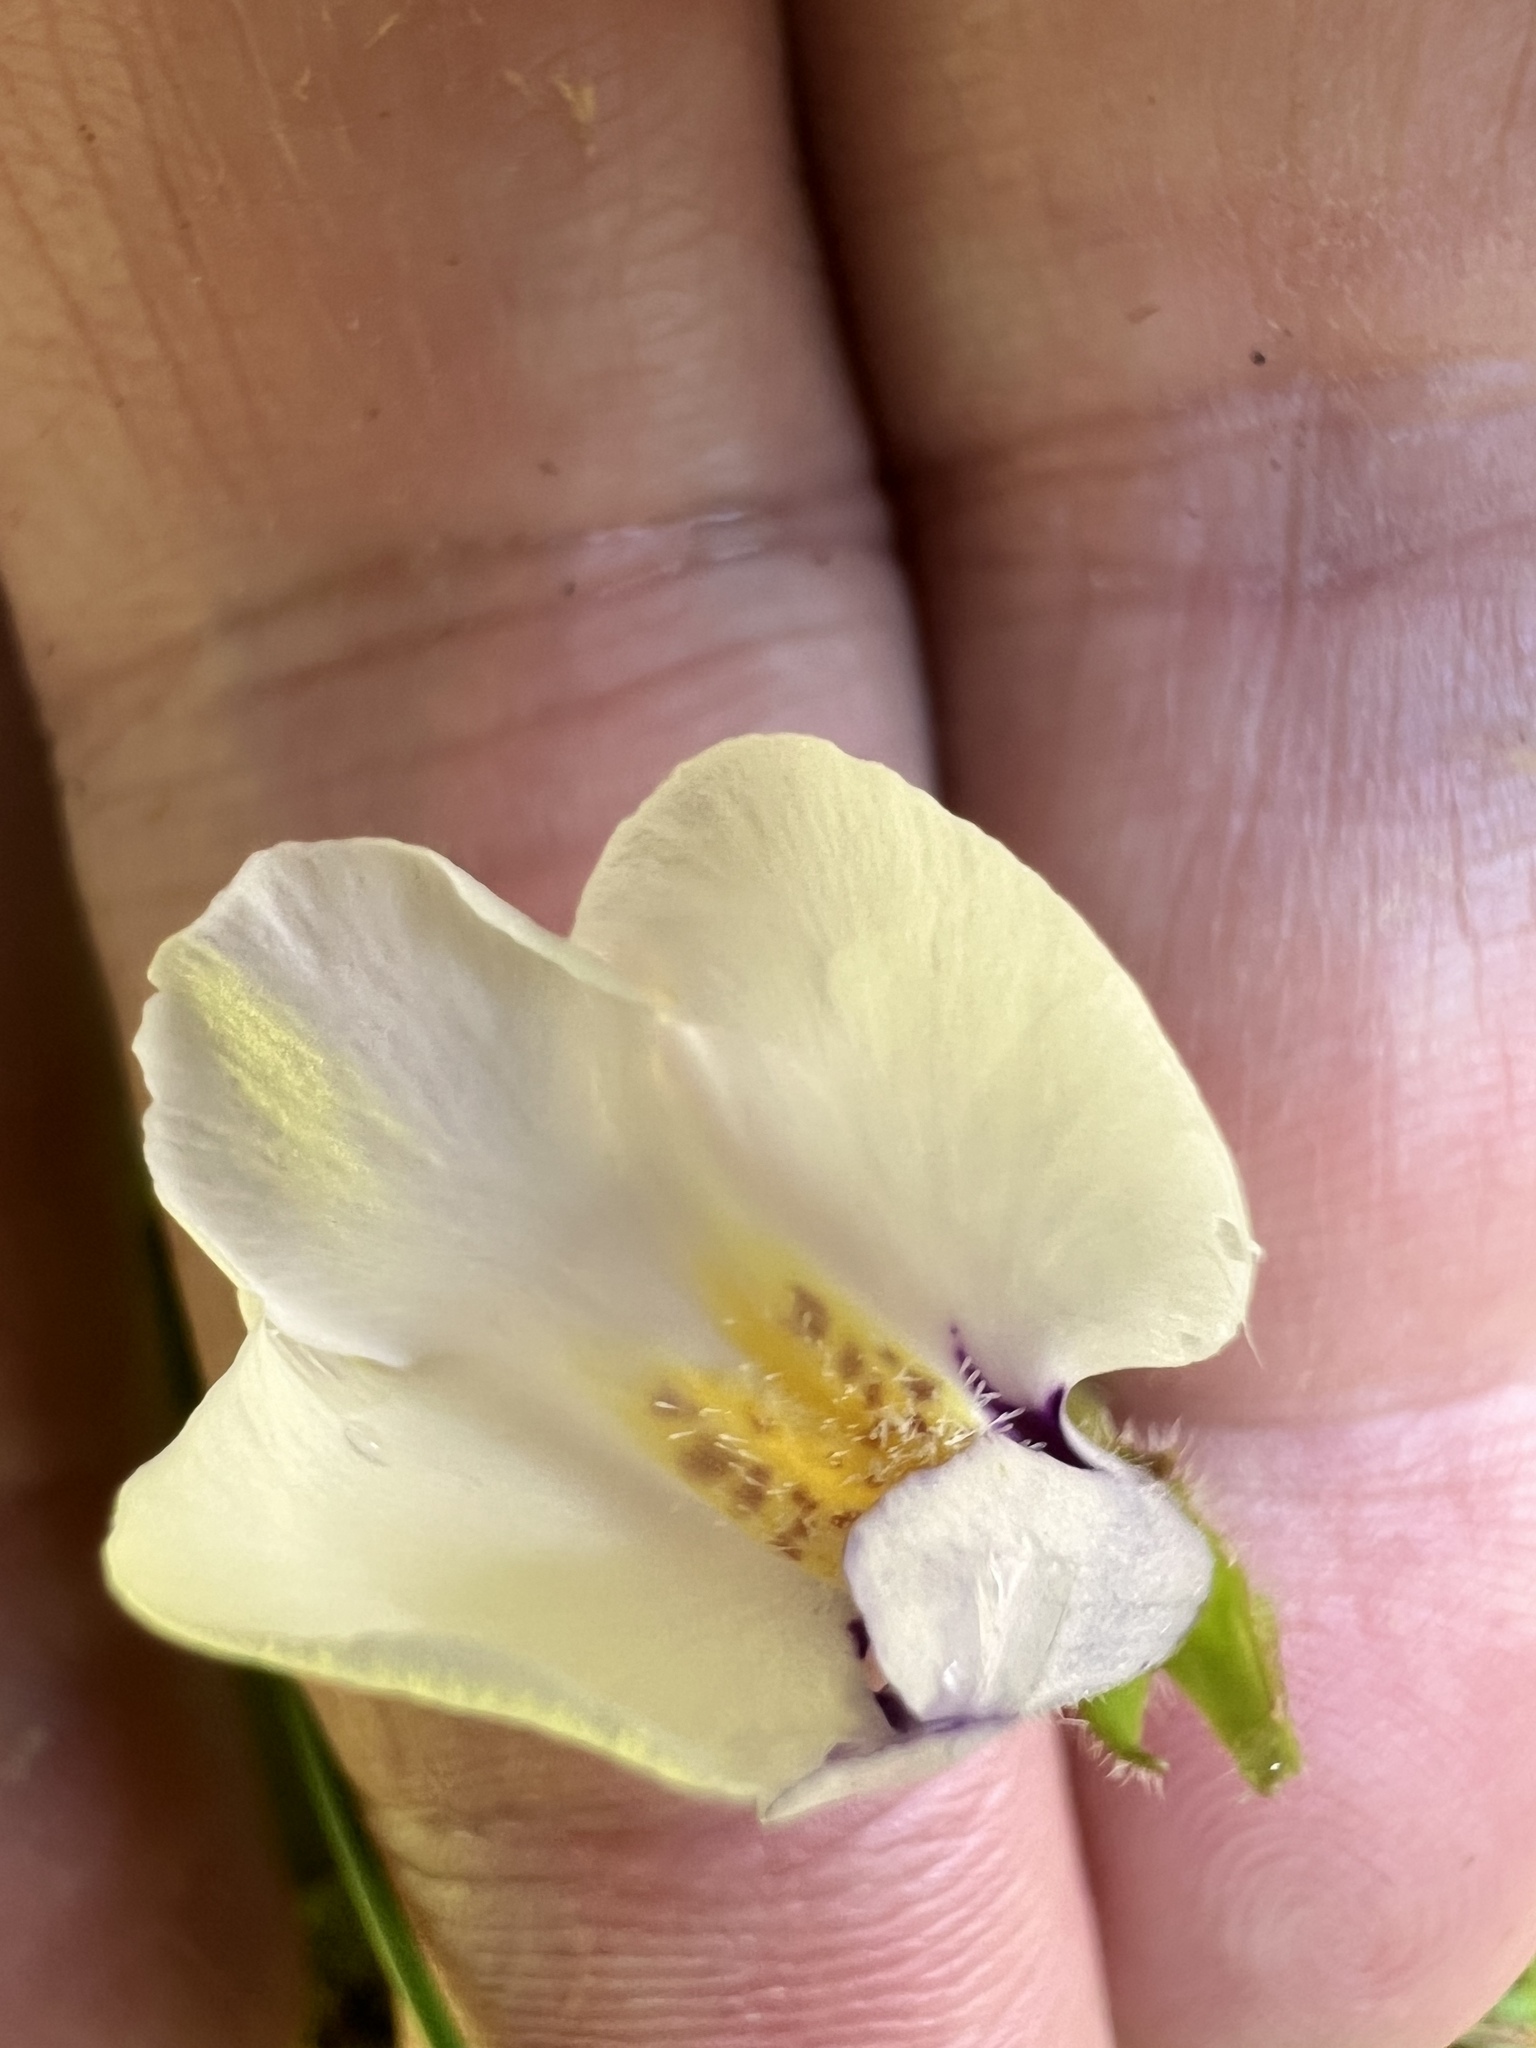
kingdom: Plantae
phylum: Tracheophyta
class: Magnoliopsida
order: Lamiales
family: Mazaceae
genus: Mazus
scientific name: Mazus radicans
